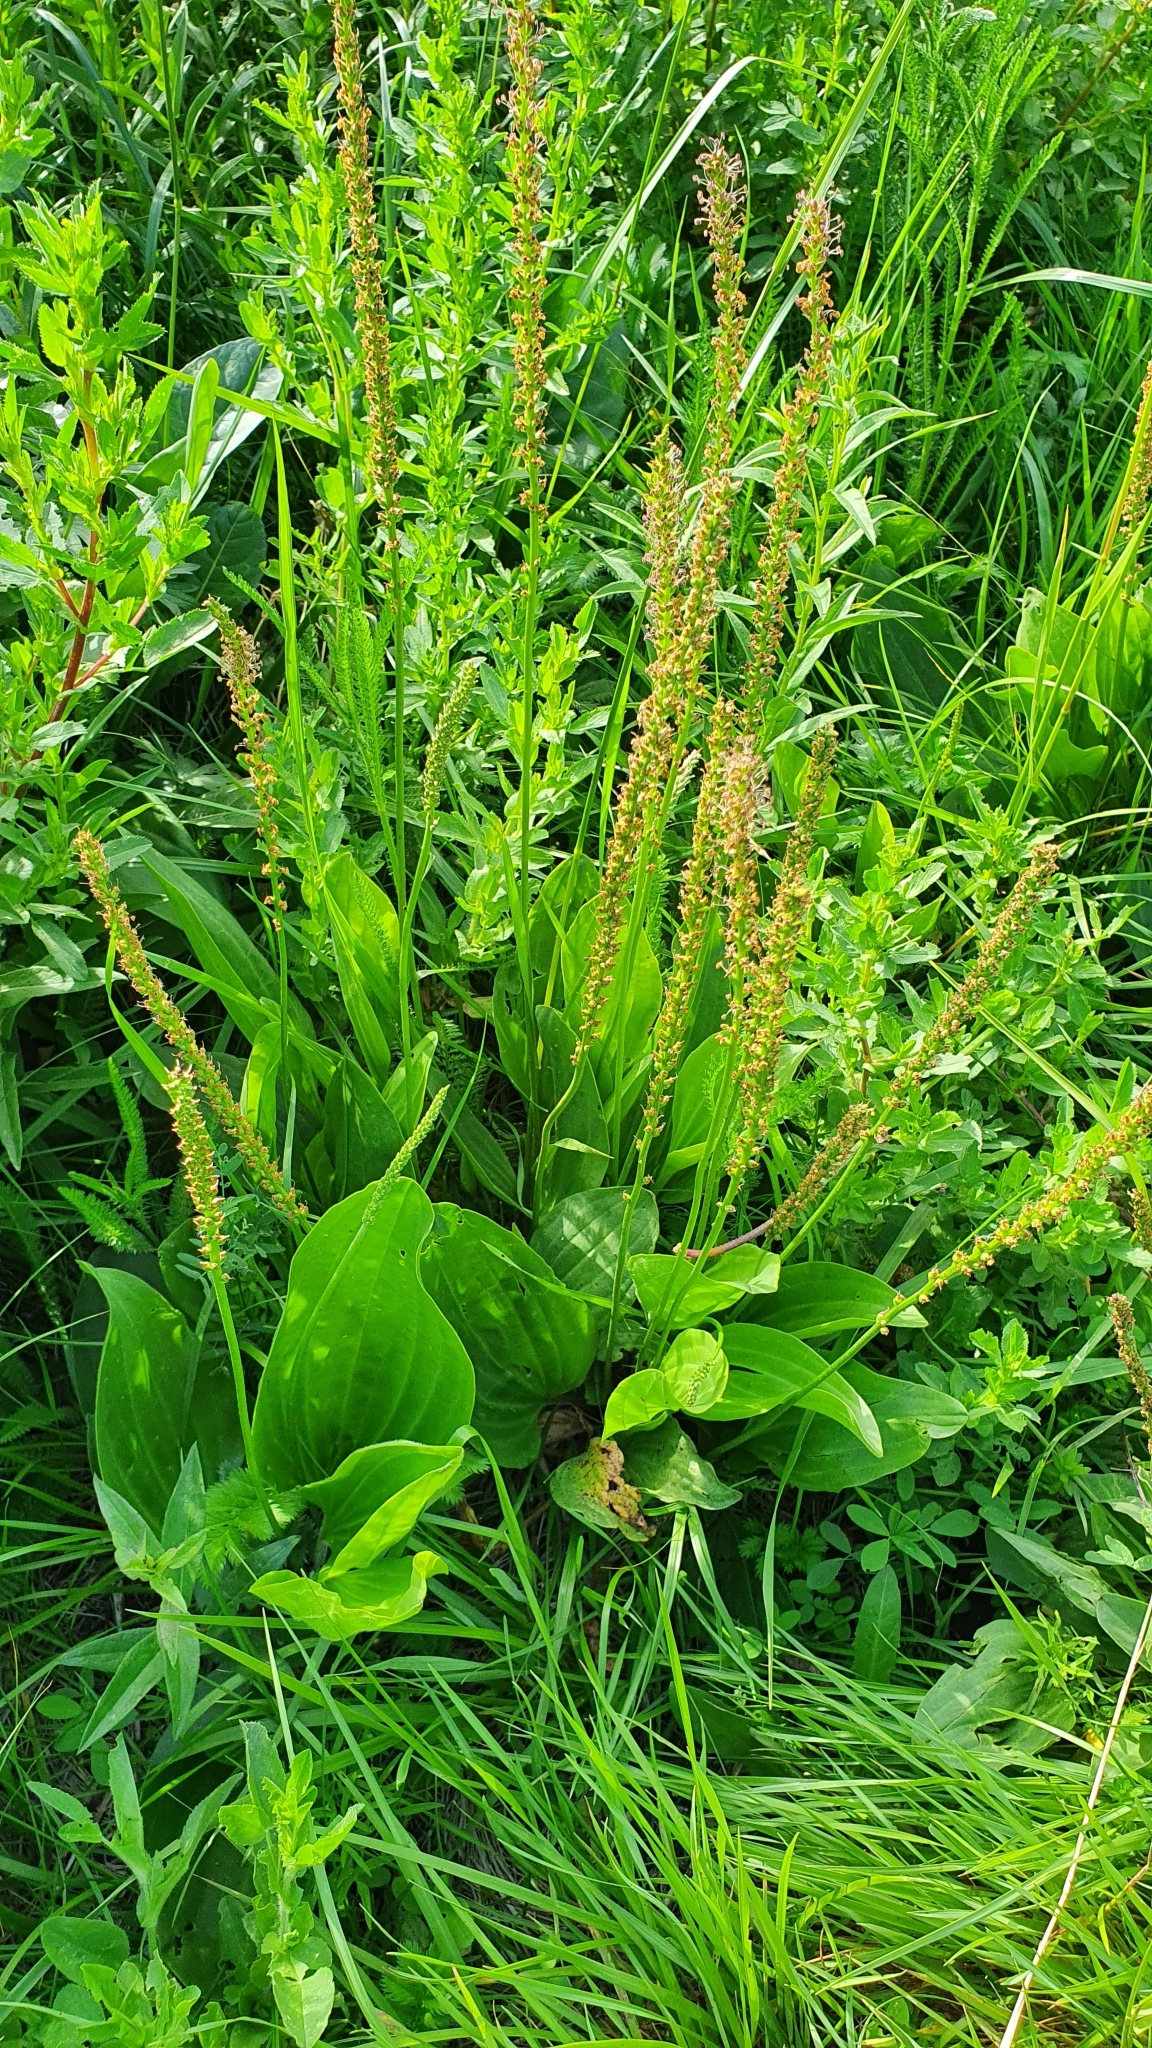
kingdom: Plantae
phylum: Tracheophyta
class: Magnoliopsida
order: Lamiales
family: Plantaginaceae
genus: Plantago
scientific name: Plantago cornuti
